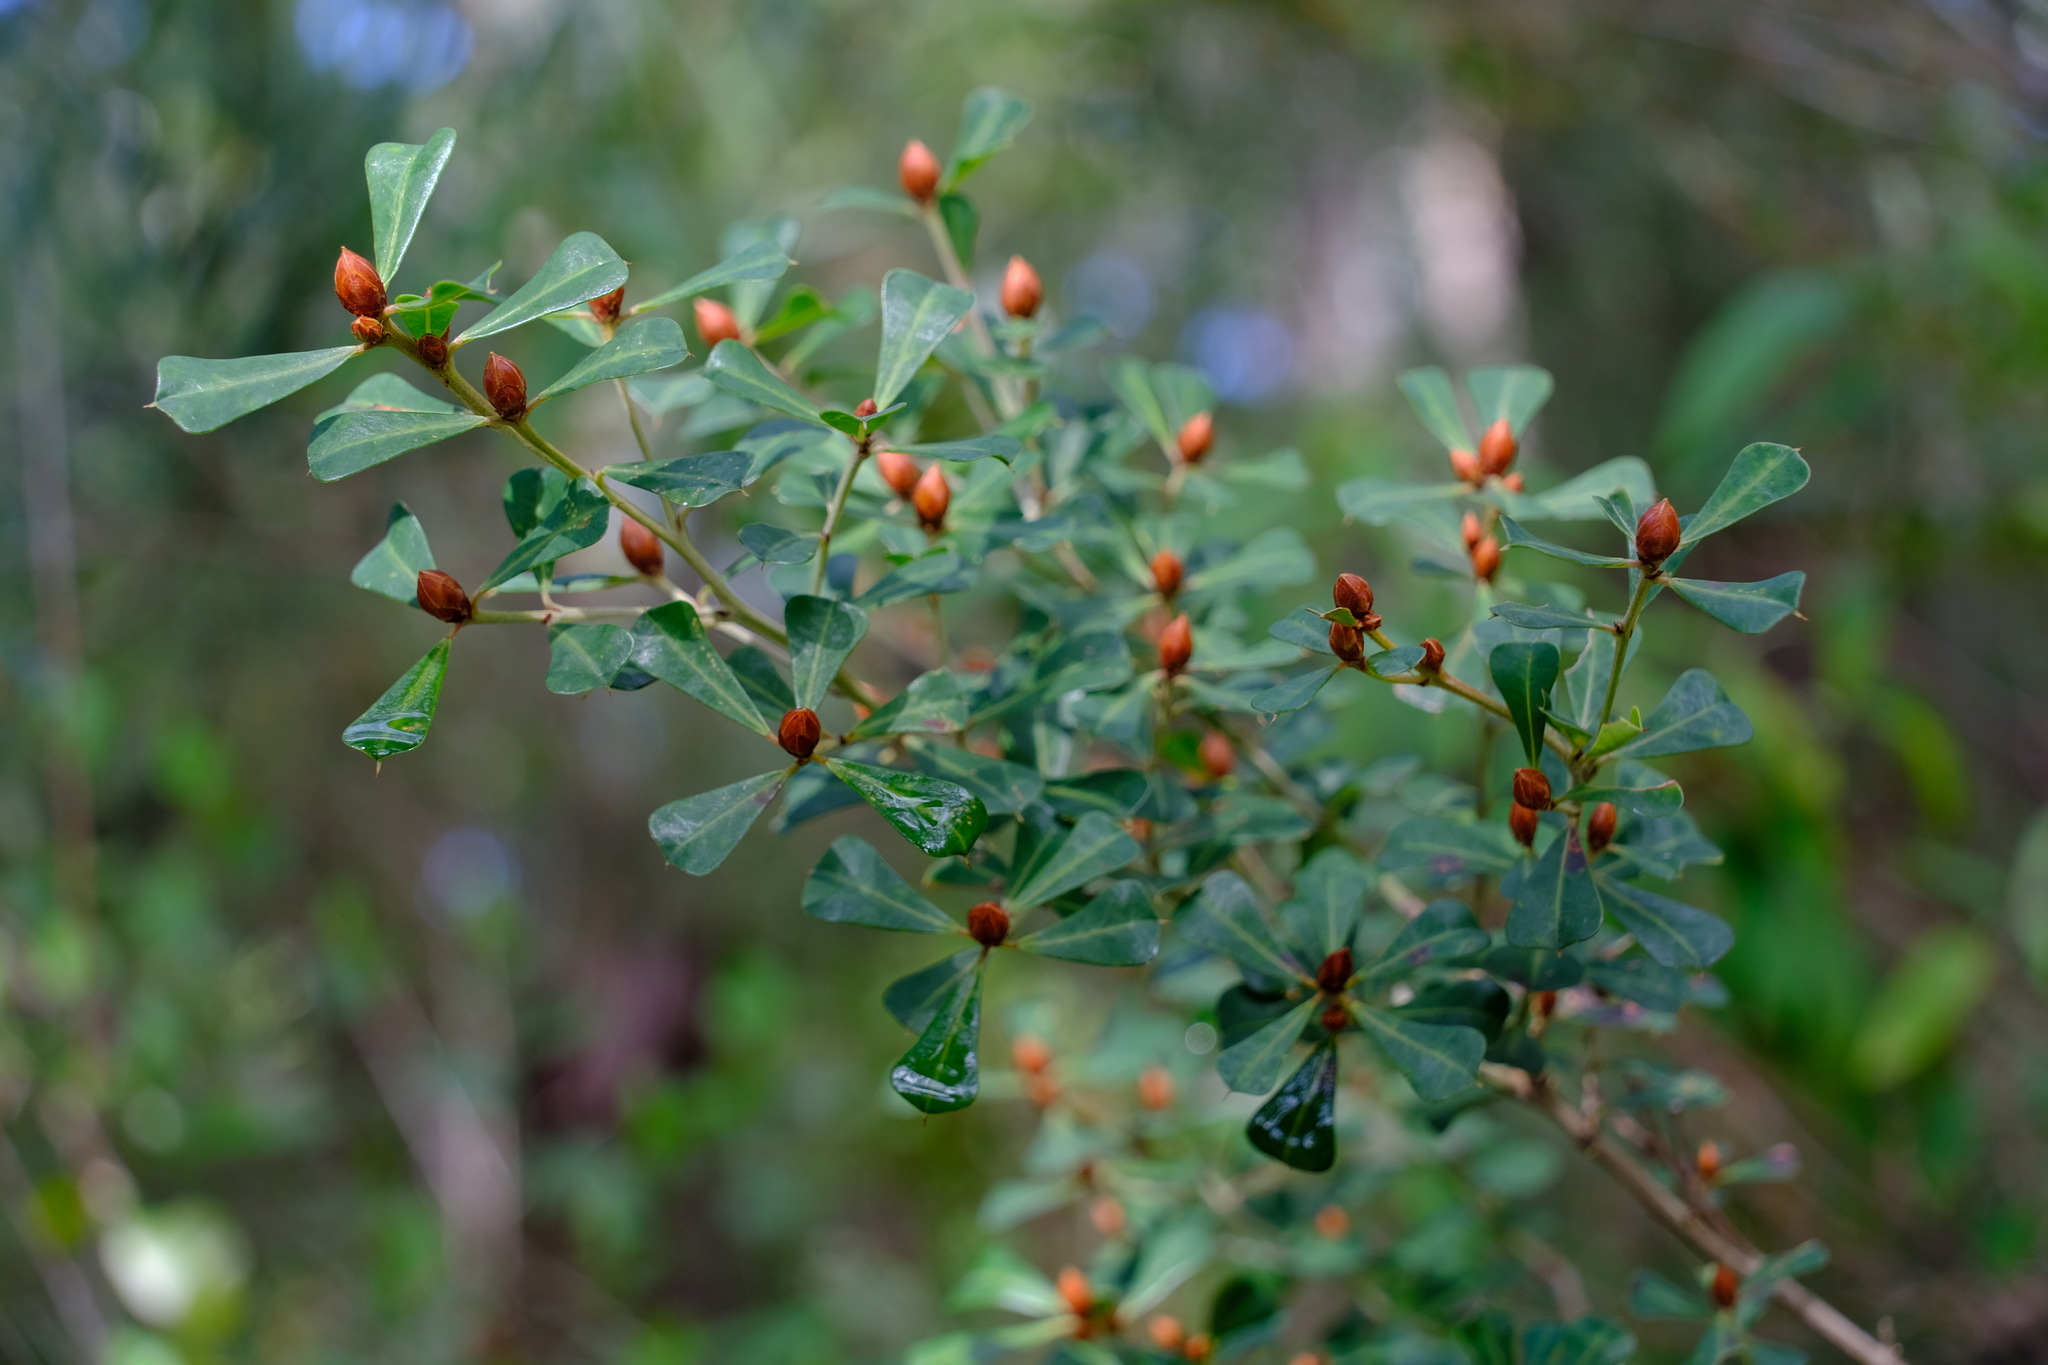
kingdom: Plantae
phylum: Tracheophyta
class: Magnoliopsida
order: Fabales
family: Fabaceae
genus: Pultenaea
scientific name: Pultenaea daphnoides
